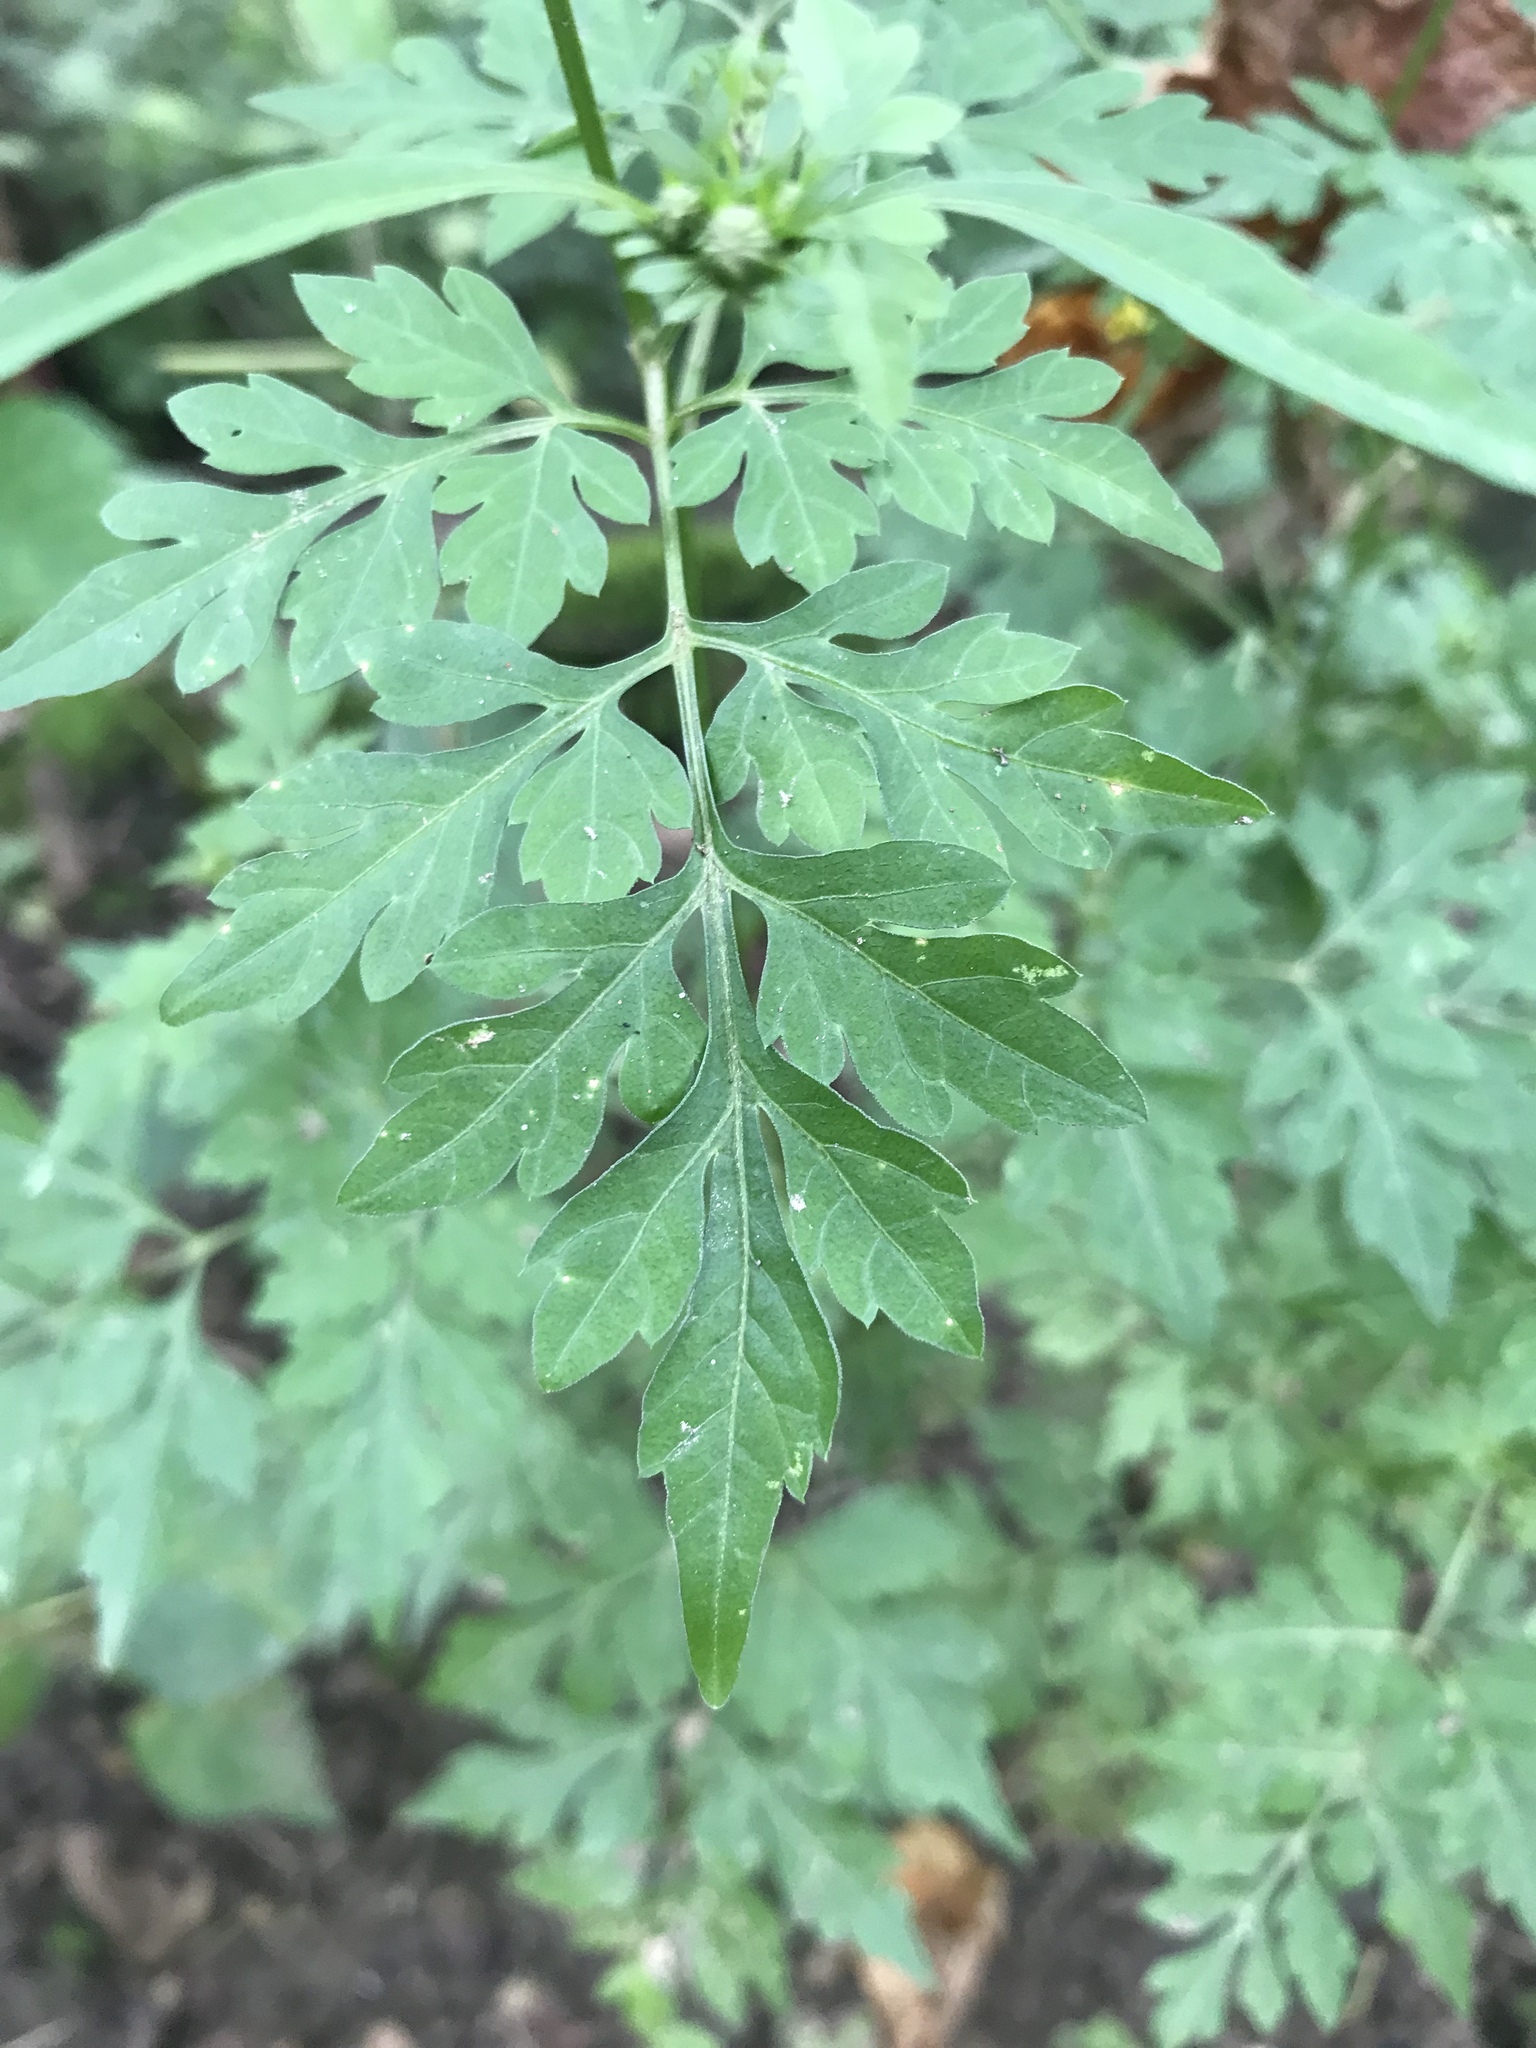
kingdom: Plantae
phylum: Tracheophyta
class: Magnoliopsida
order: Asterales
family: Asteraceae
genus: Bidens
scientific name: Bidens bipinnata
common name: Spanish-needles
